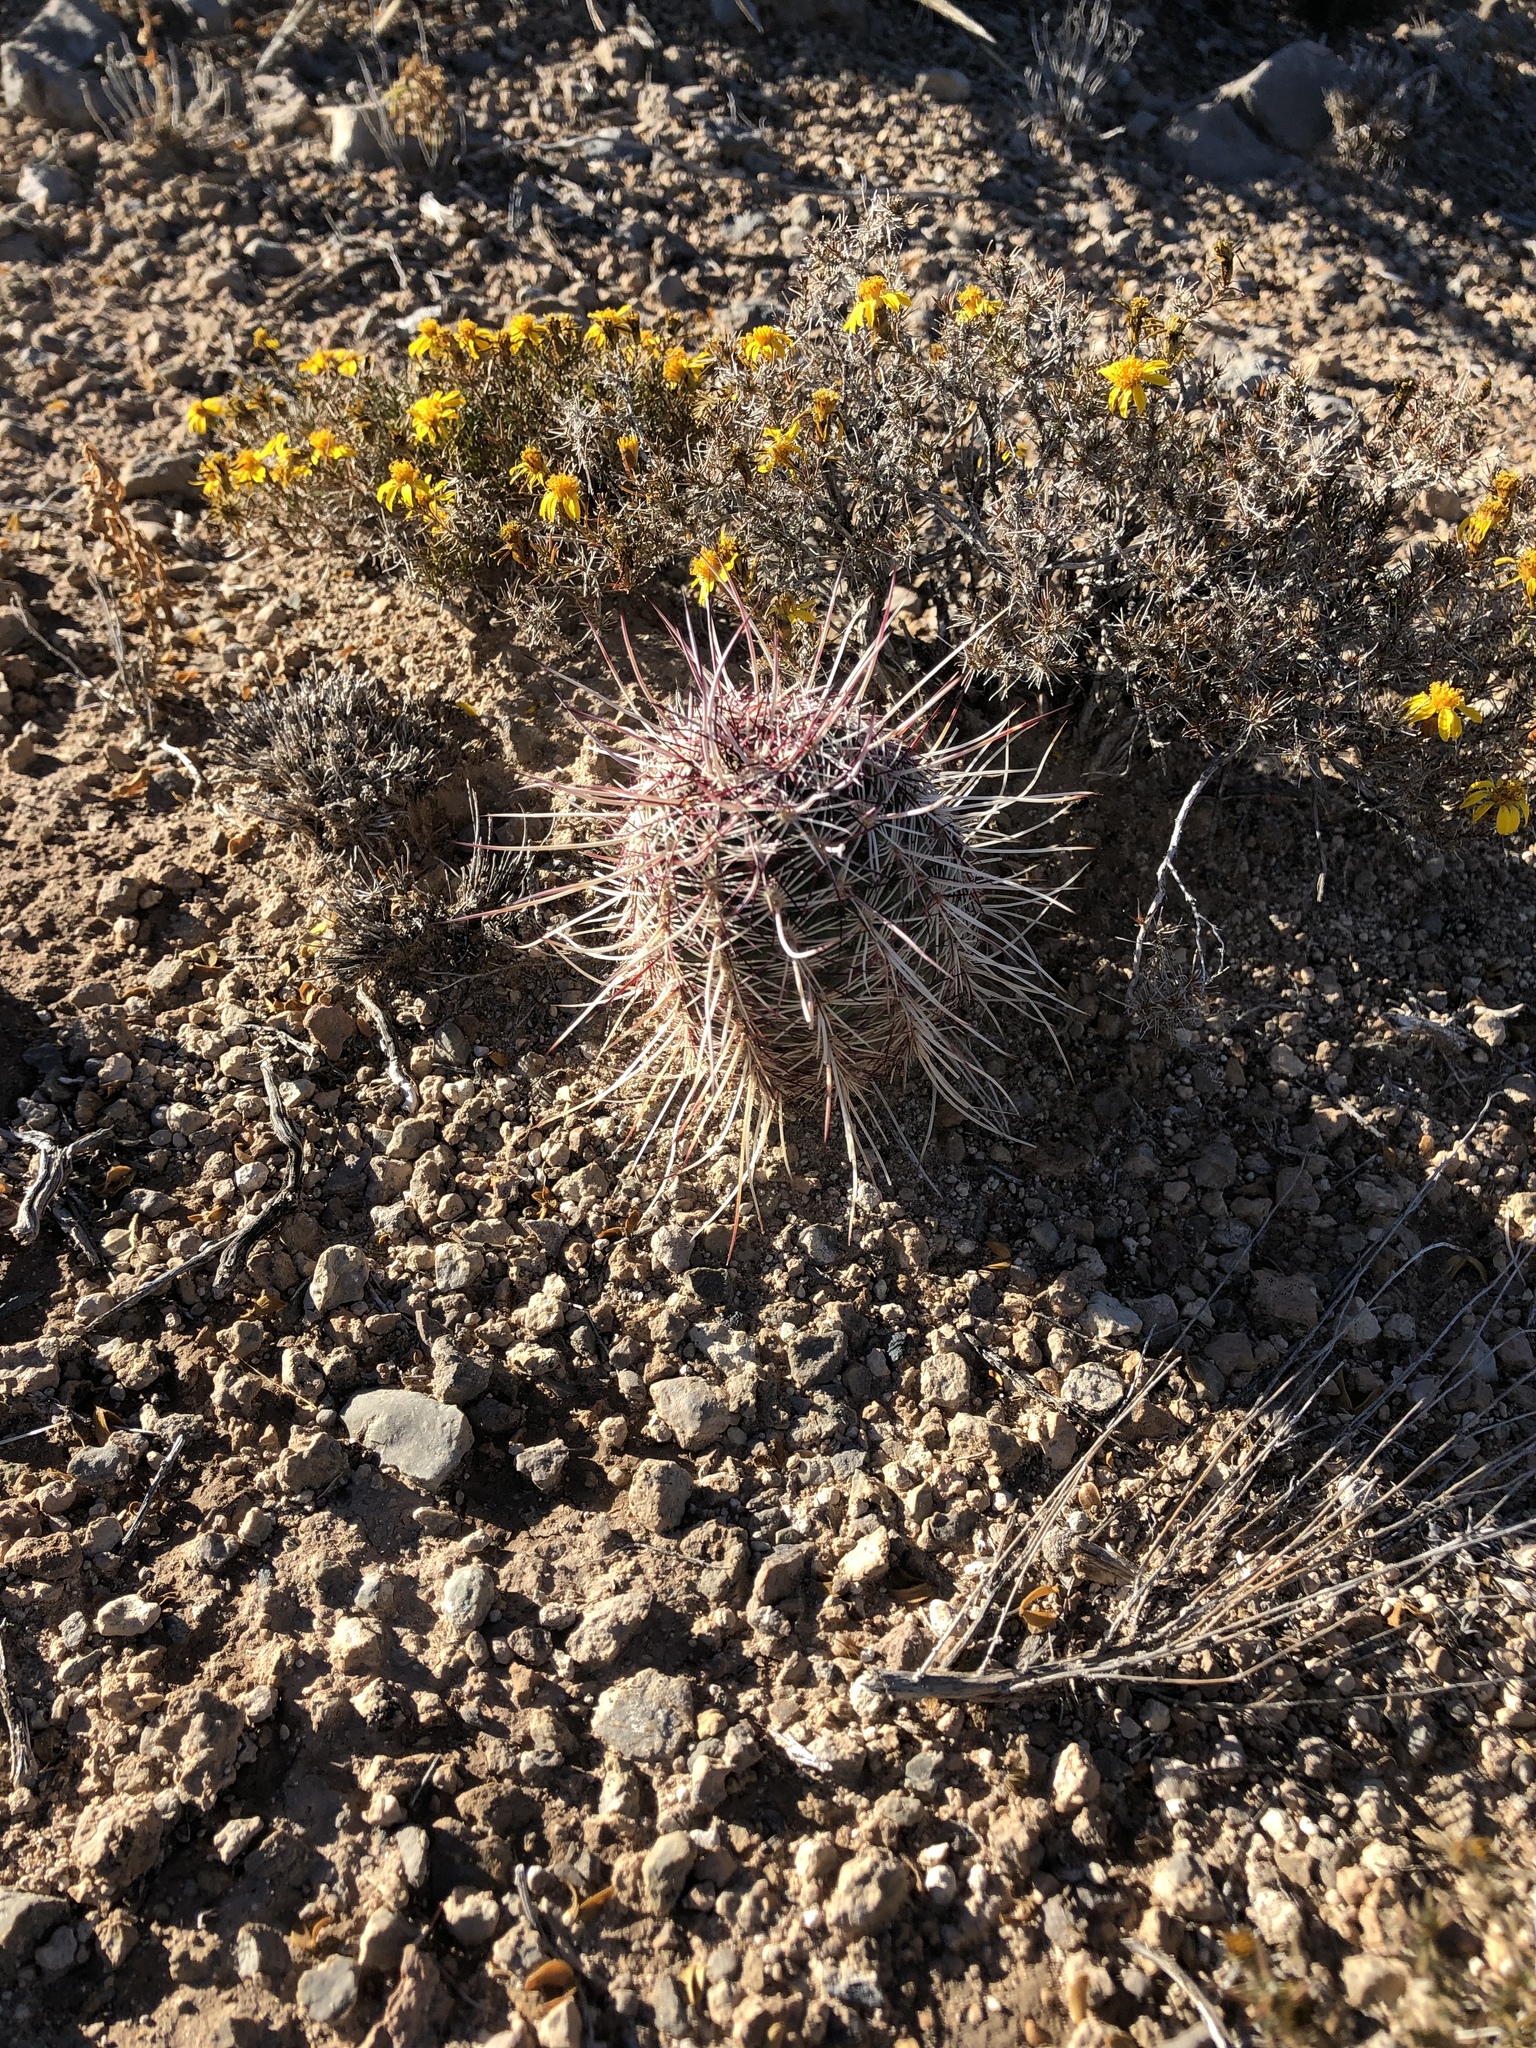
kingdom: Plantae
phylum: Tracheophyta
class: Magnoliopsida
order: Caryophyllales
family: Cactaceae
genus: Echinocereus
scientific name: Echinocereus viridiflorus
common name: Nylon hedgehog cactus
